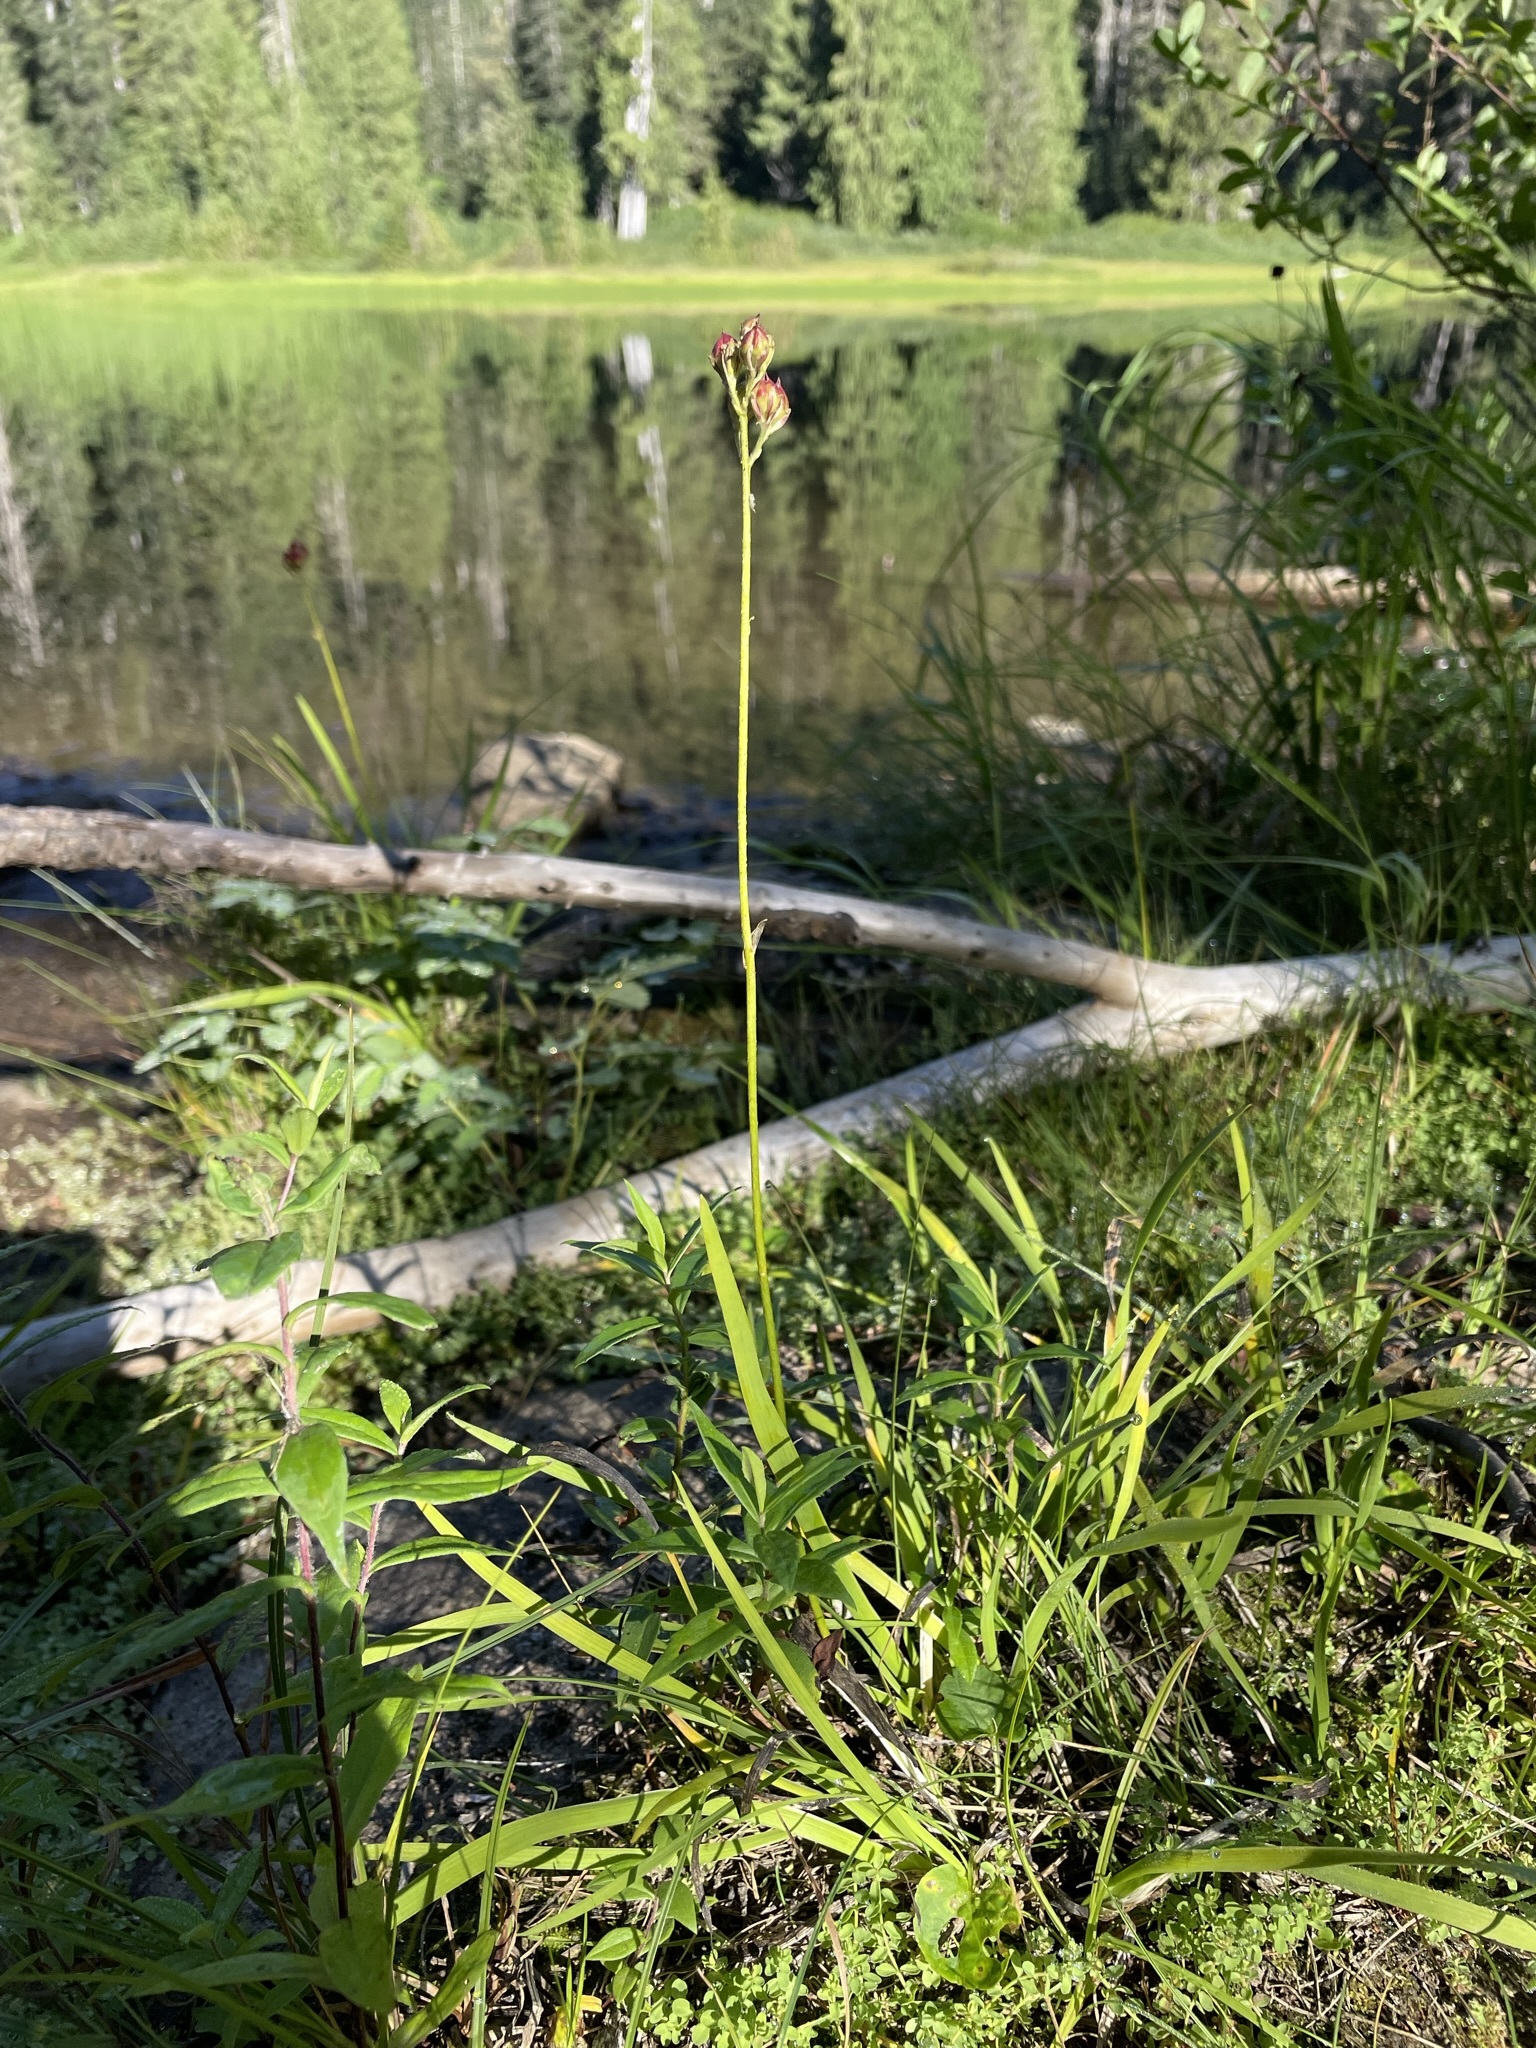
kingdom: Plantae
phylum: Tracheophyta
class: Liliopsida
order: Alismatales
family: Tofieldiaceae
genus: Triantha
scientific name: Triantha occidentalis
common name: Western false asphodel
